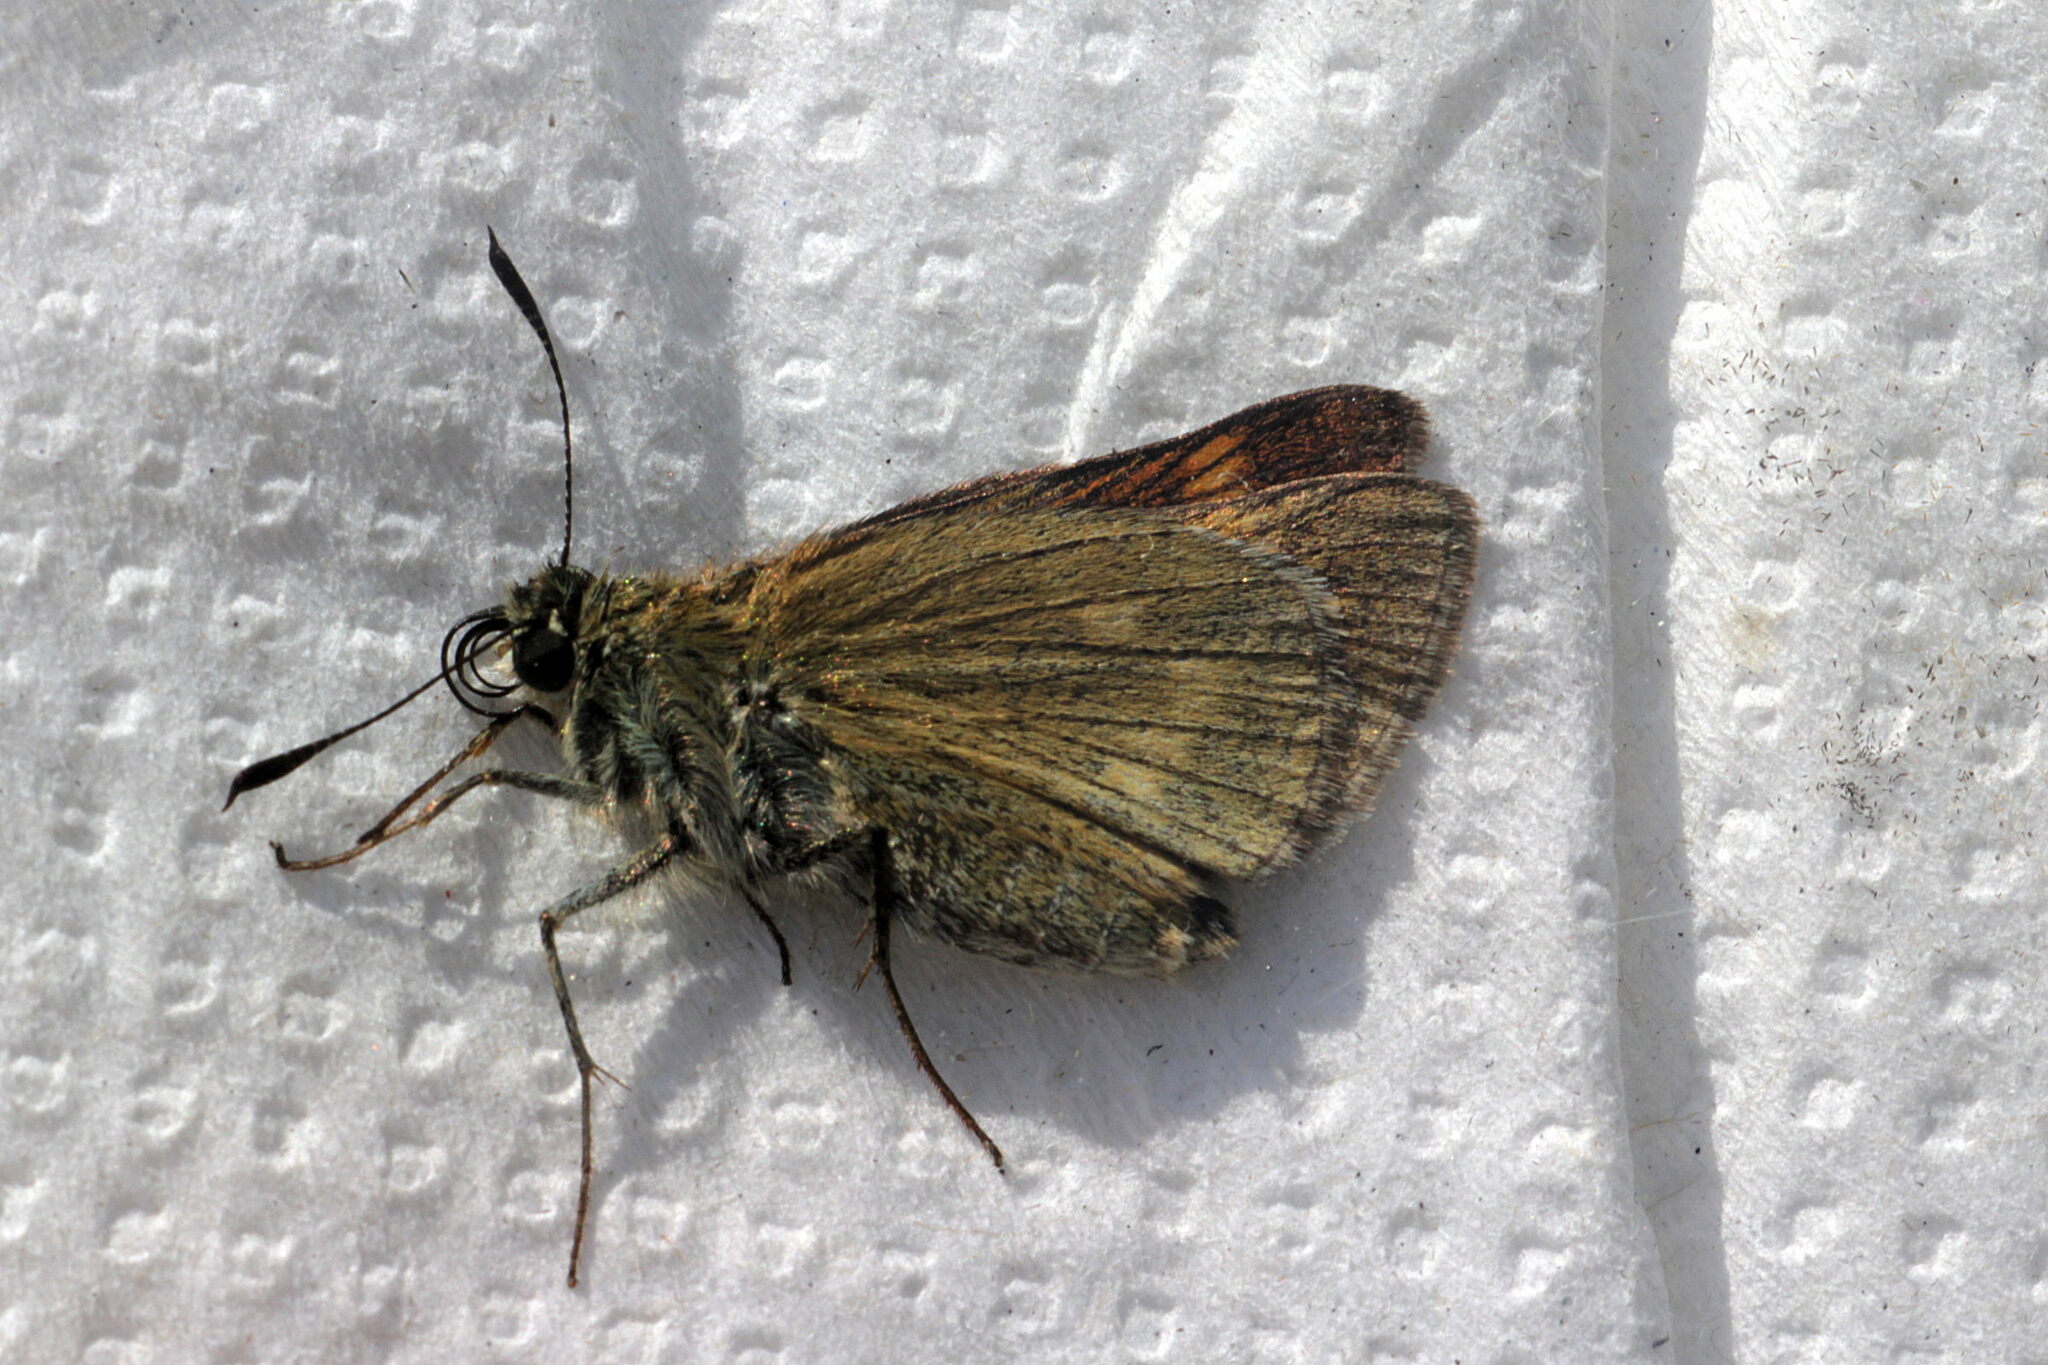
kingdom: Animalia
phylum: Arthropoda
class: Insecta
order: Lepidoptera
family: Hesperiidae
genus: Ochlodes
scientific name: Ochlodes venata
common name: Large skipper
